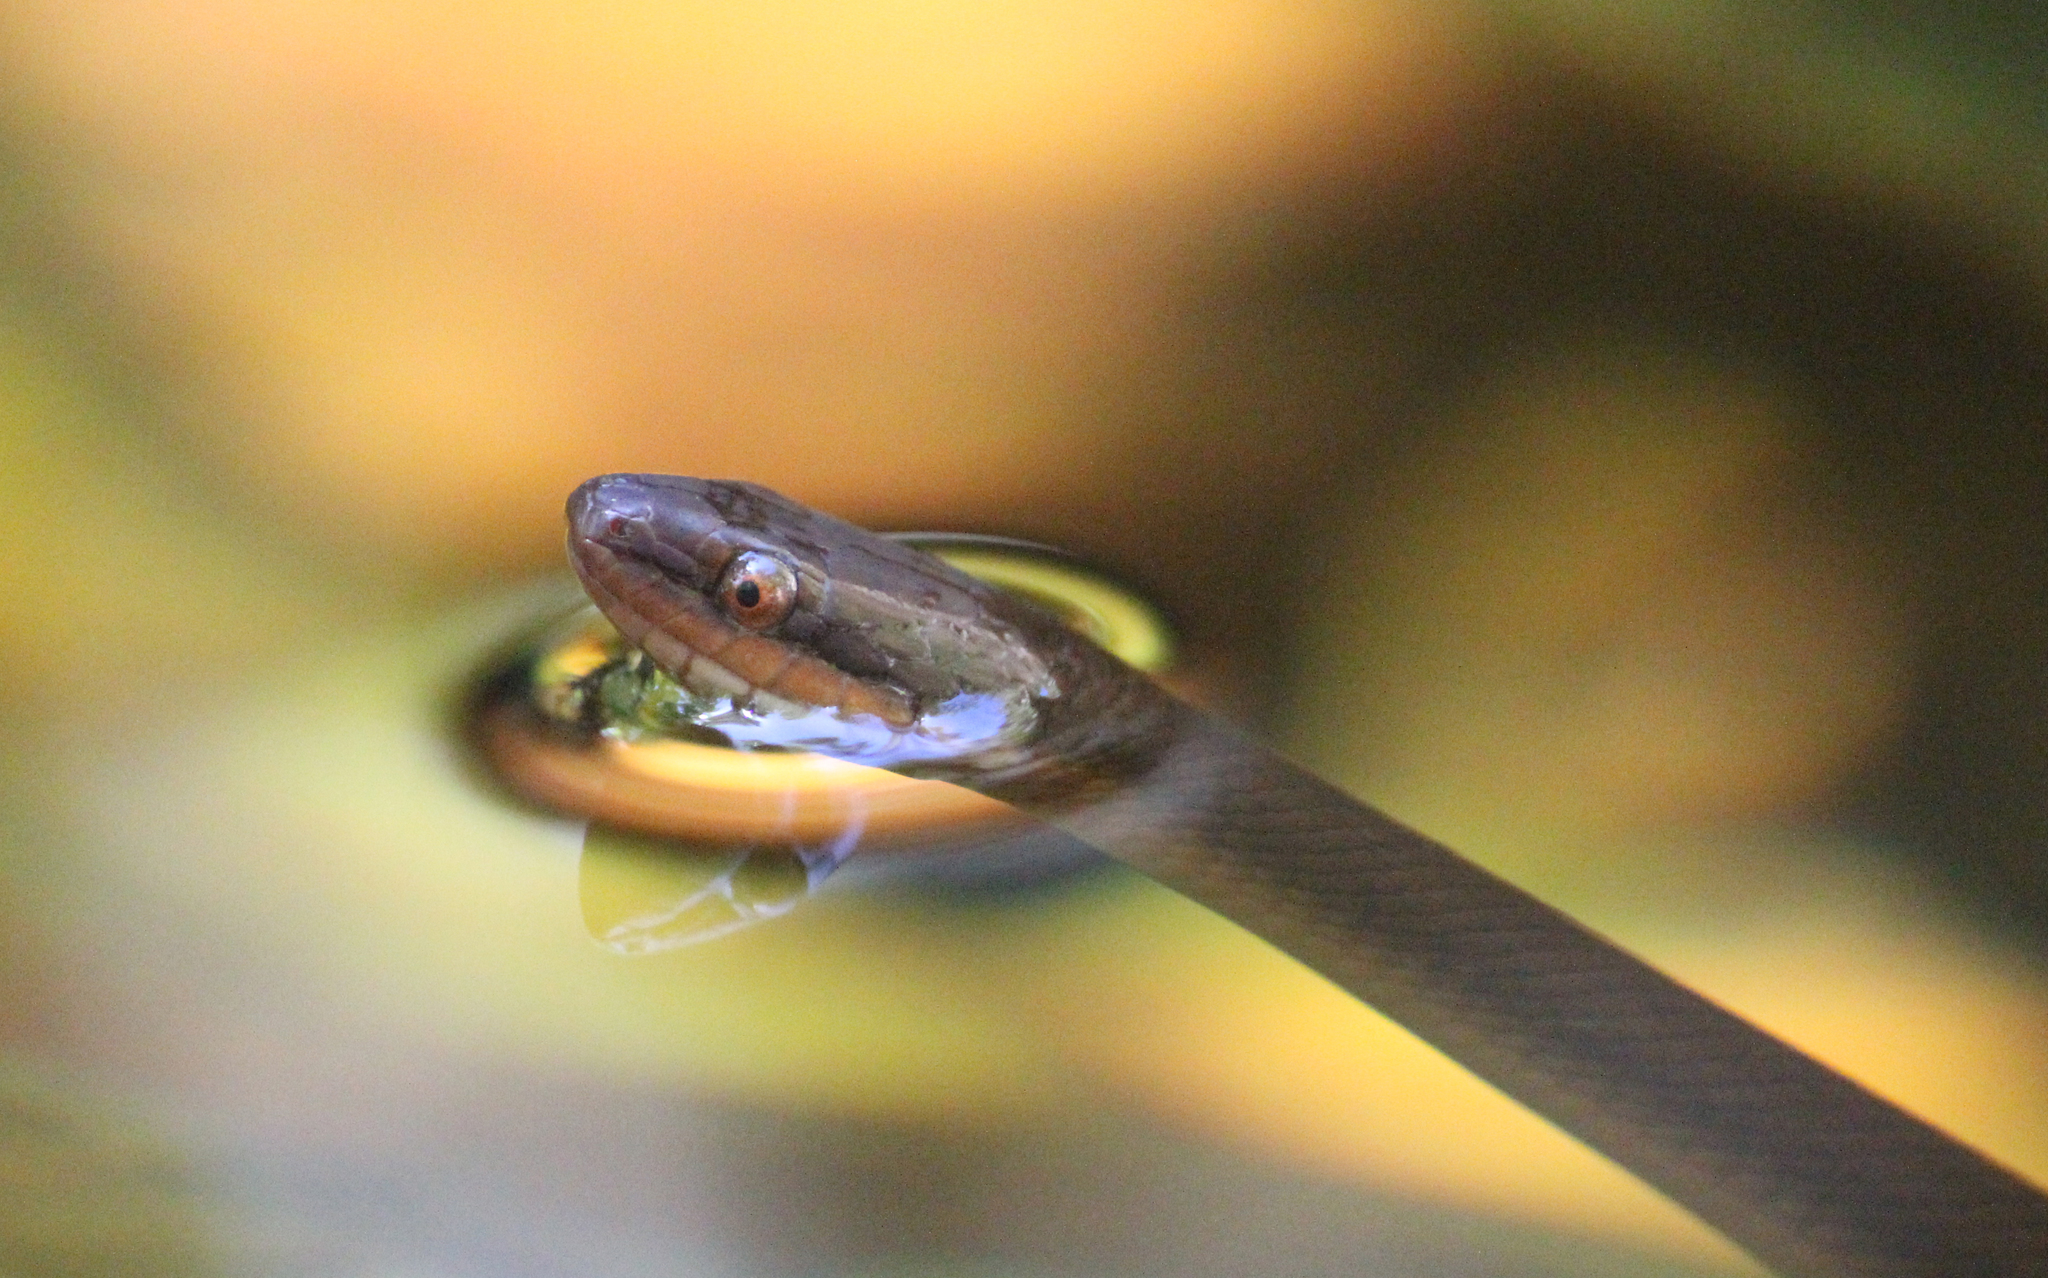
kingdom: Animalia
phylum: Chordata
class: Squamata
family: Lamprophiidae
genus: Lycodonomorphus
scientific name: Lycodonomorphus rufulus
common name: Brown water snake
